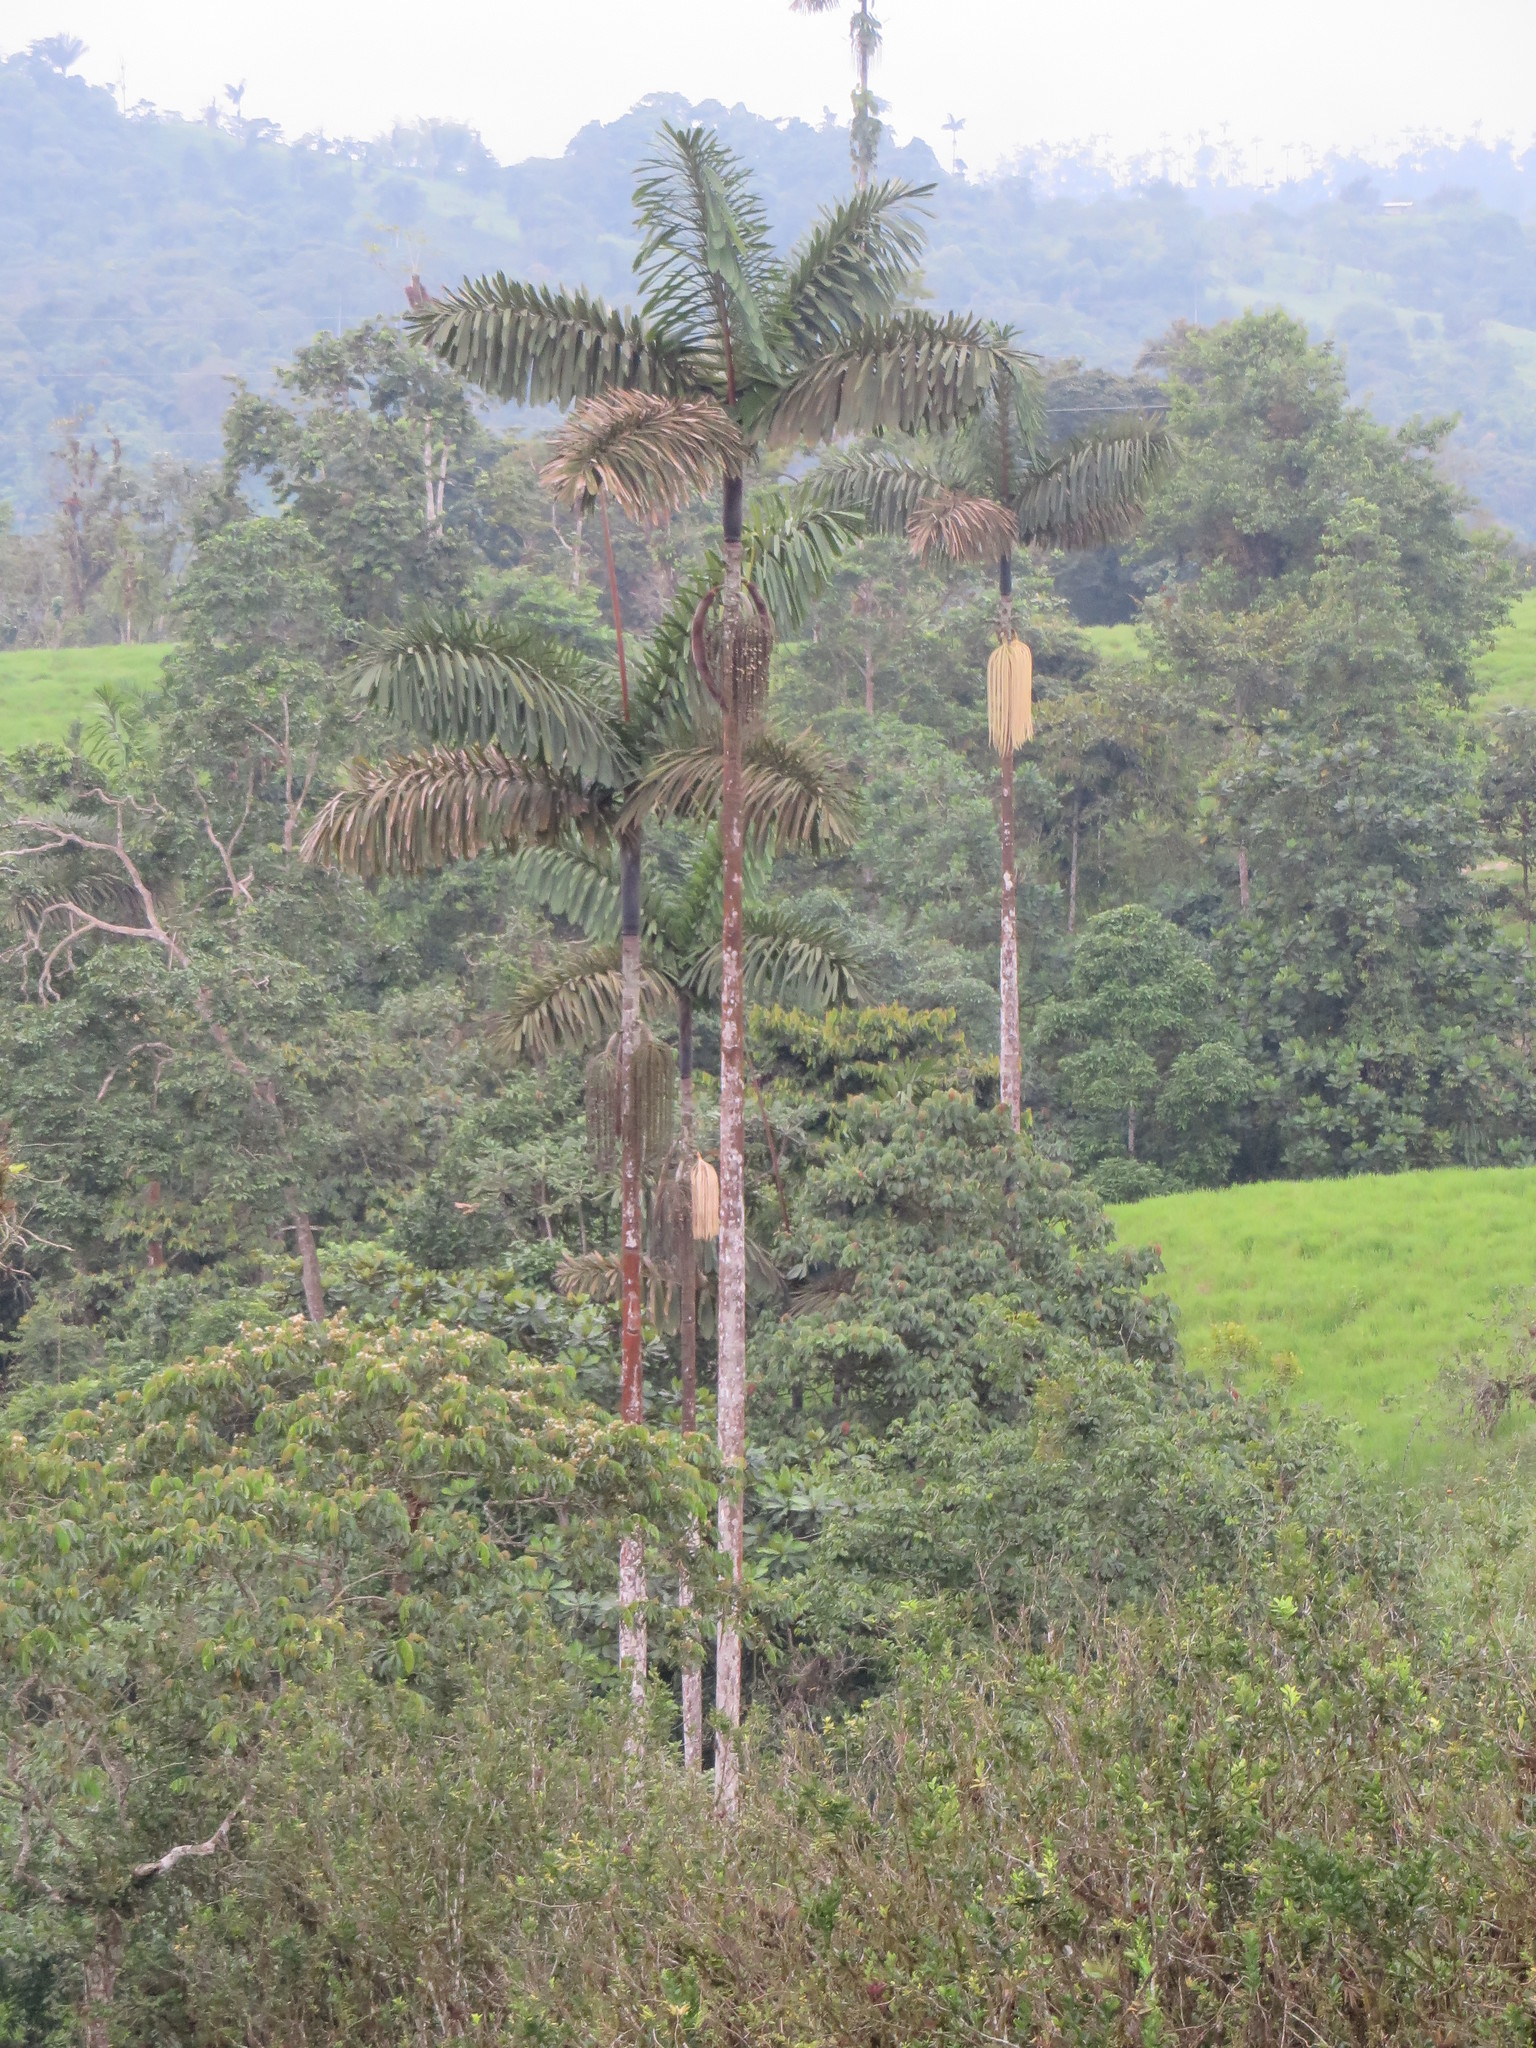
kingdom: Plantae
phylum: Tracheophyta
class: Liliopsida
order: Arecales
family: Arecaceae
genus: Iriartea
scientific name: Iriartea deltoidea
